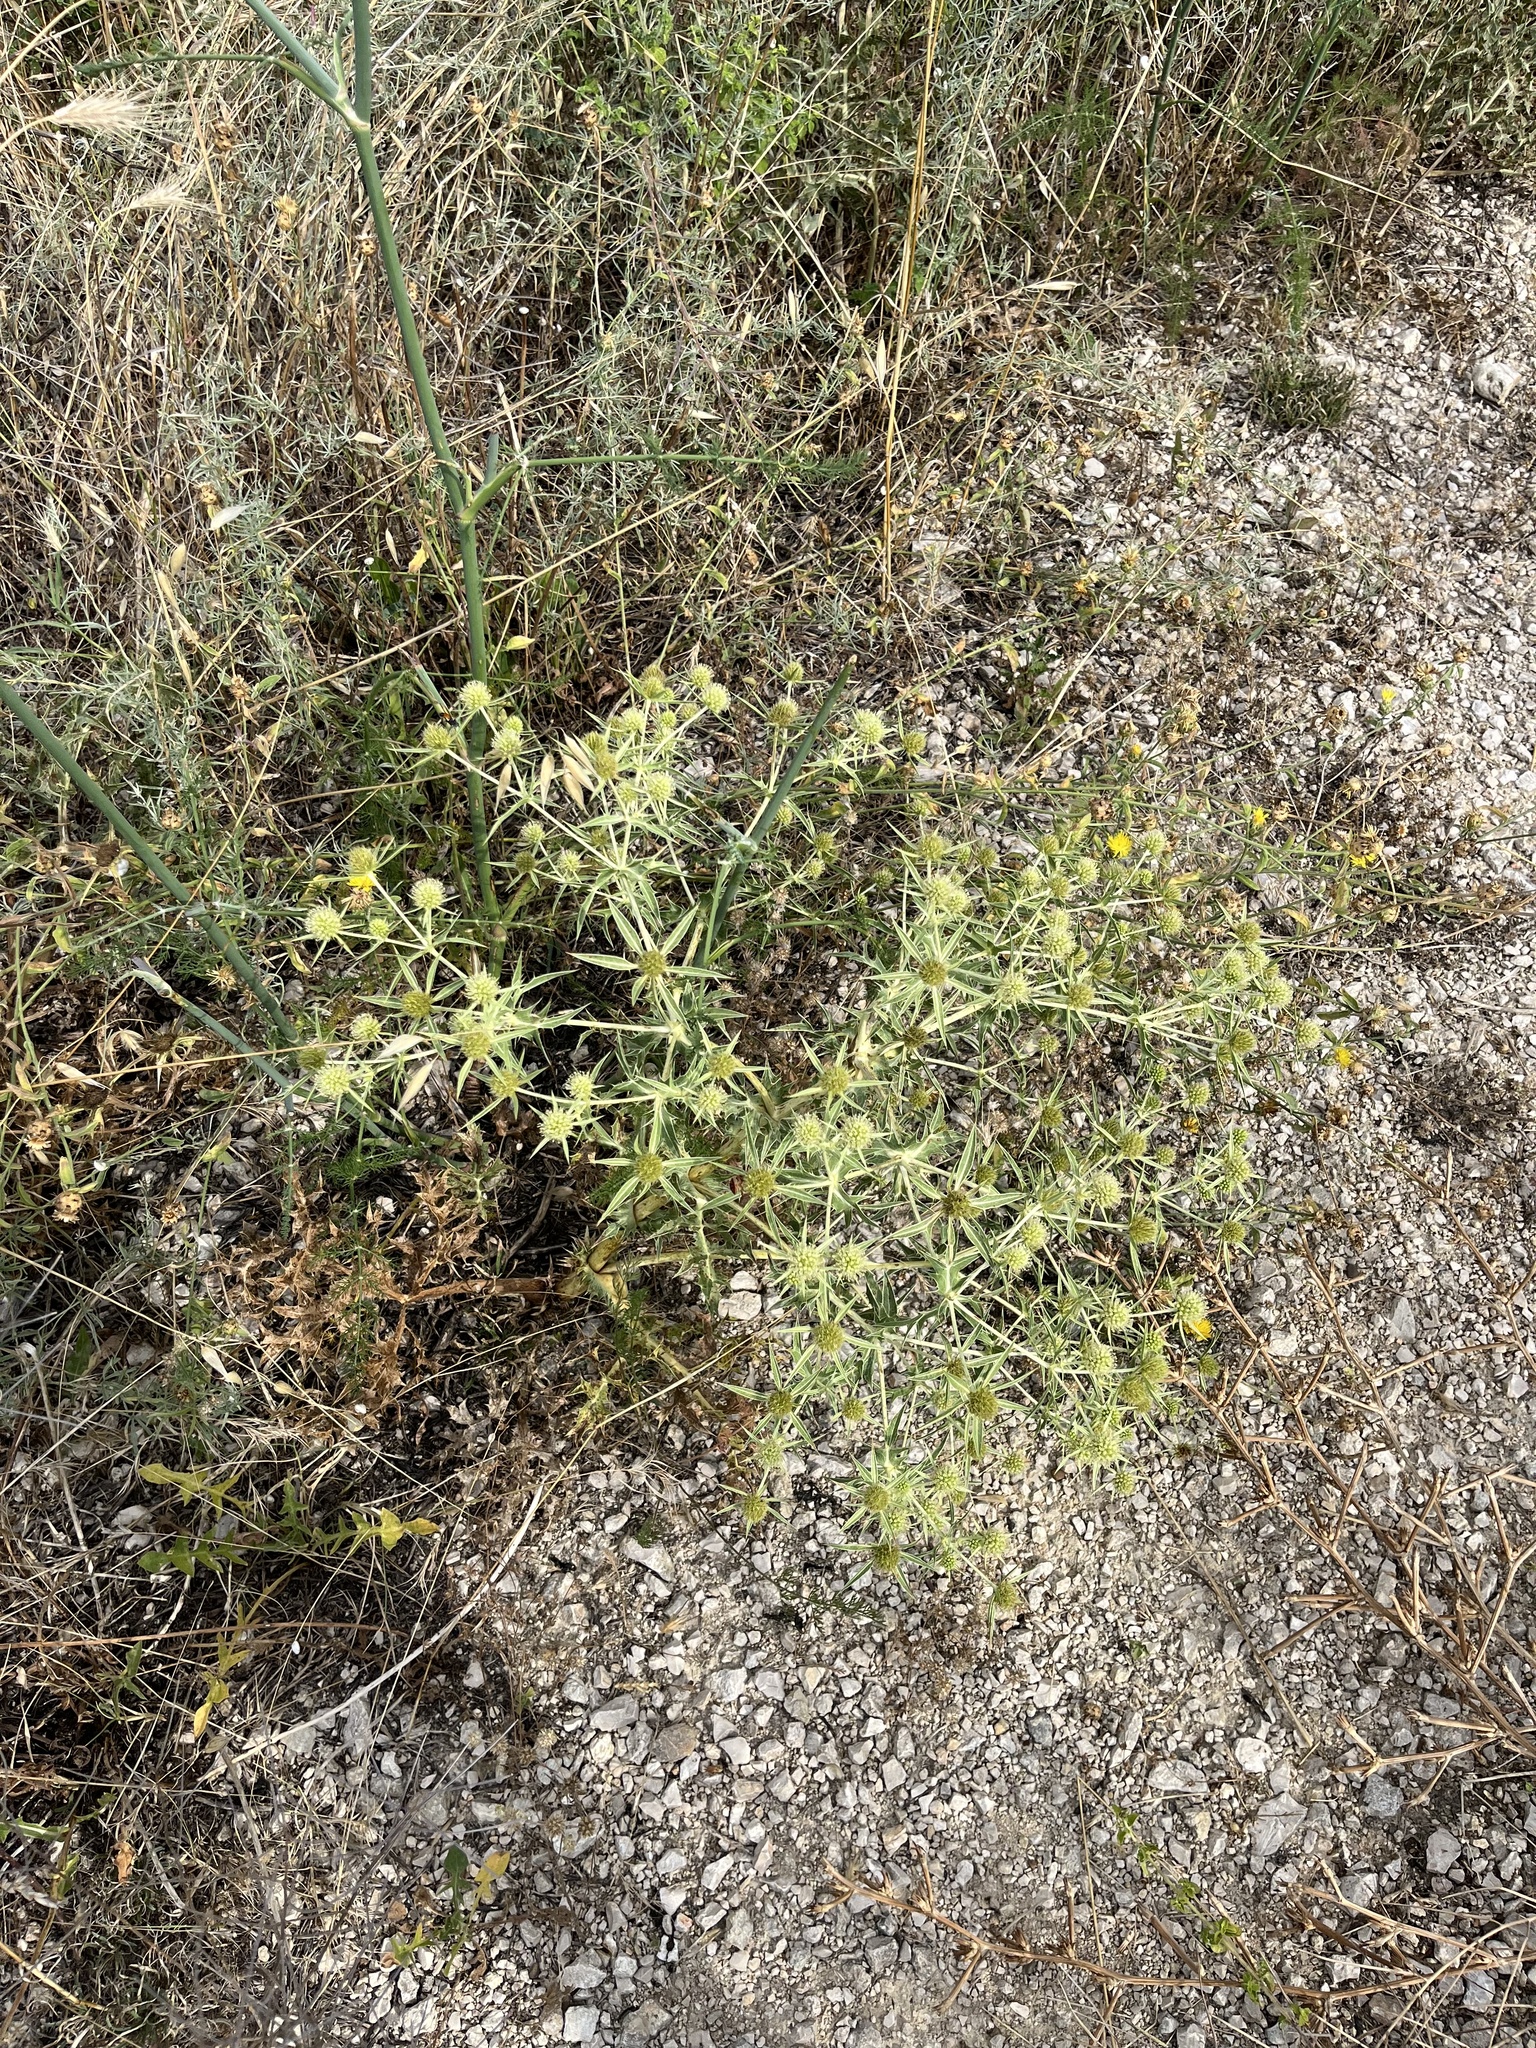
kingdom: Plantae
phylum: Tracheophyta
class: Magnoliopsida
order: Apiales
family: Apiaceae
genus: Eryngium
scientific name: Eryngium campestre
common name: Field eryngo
